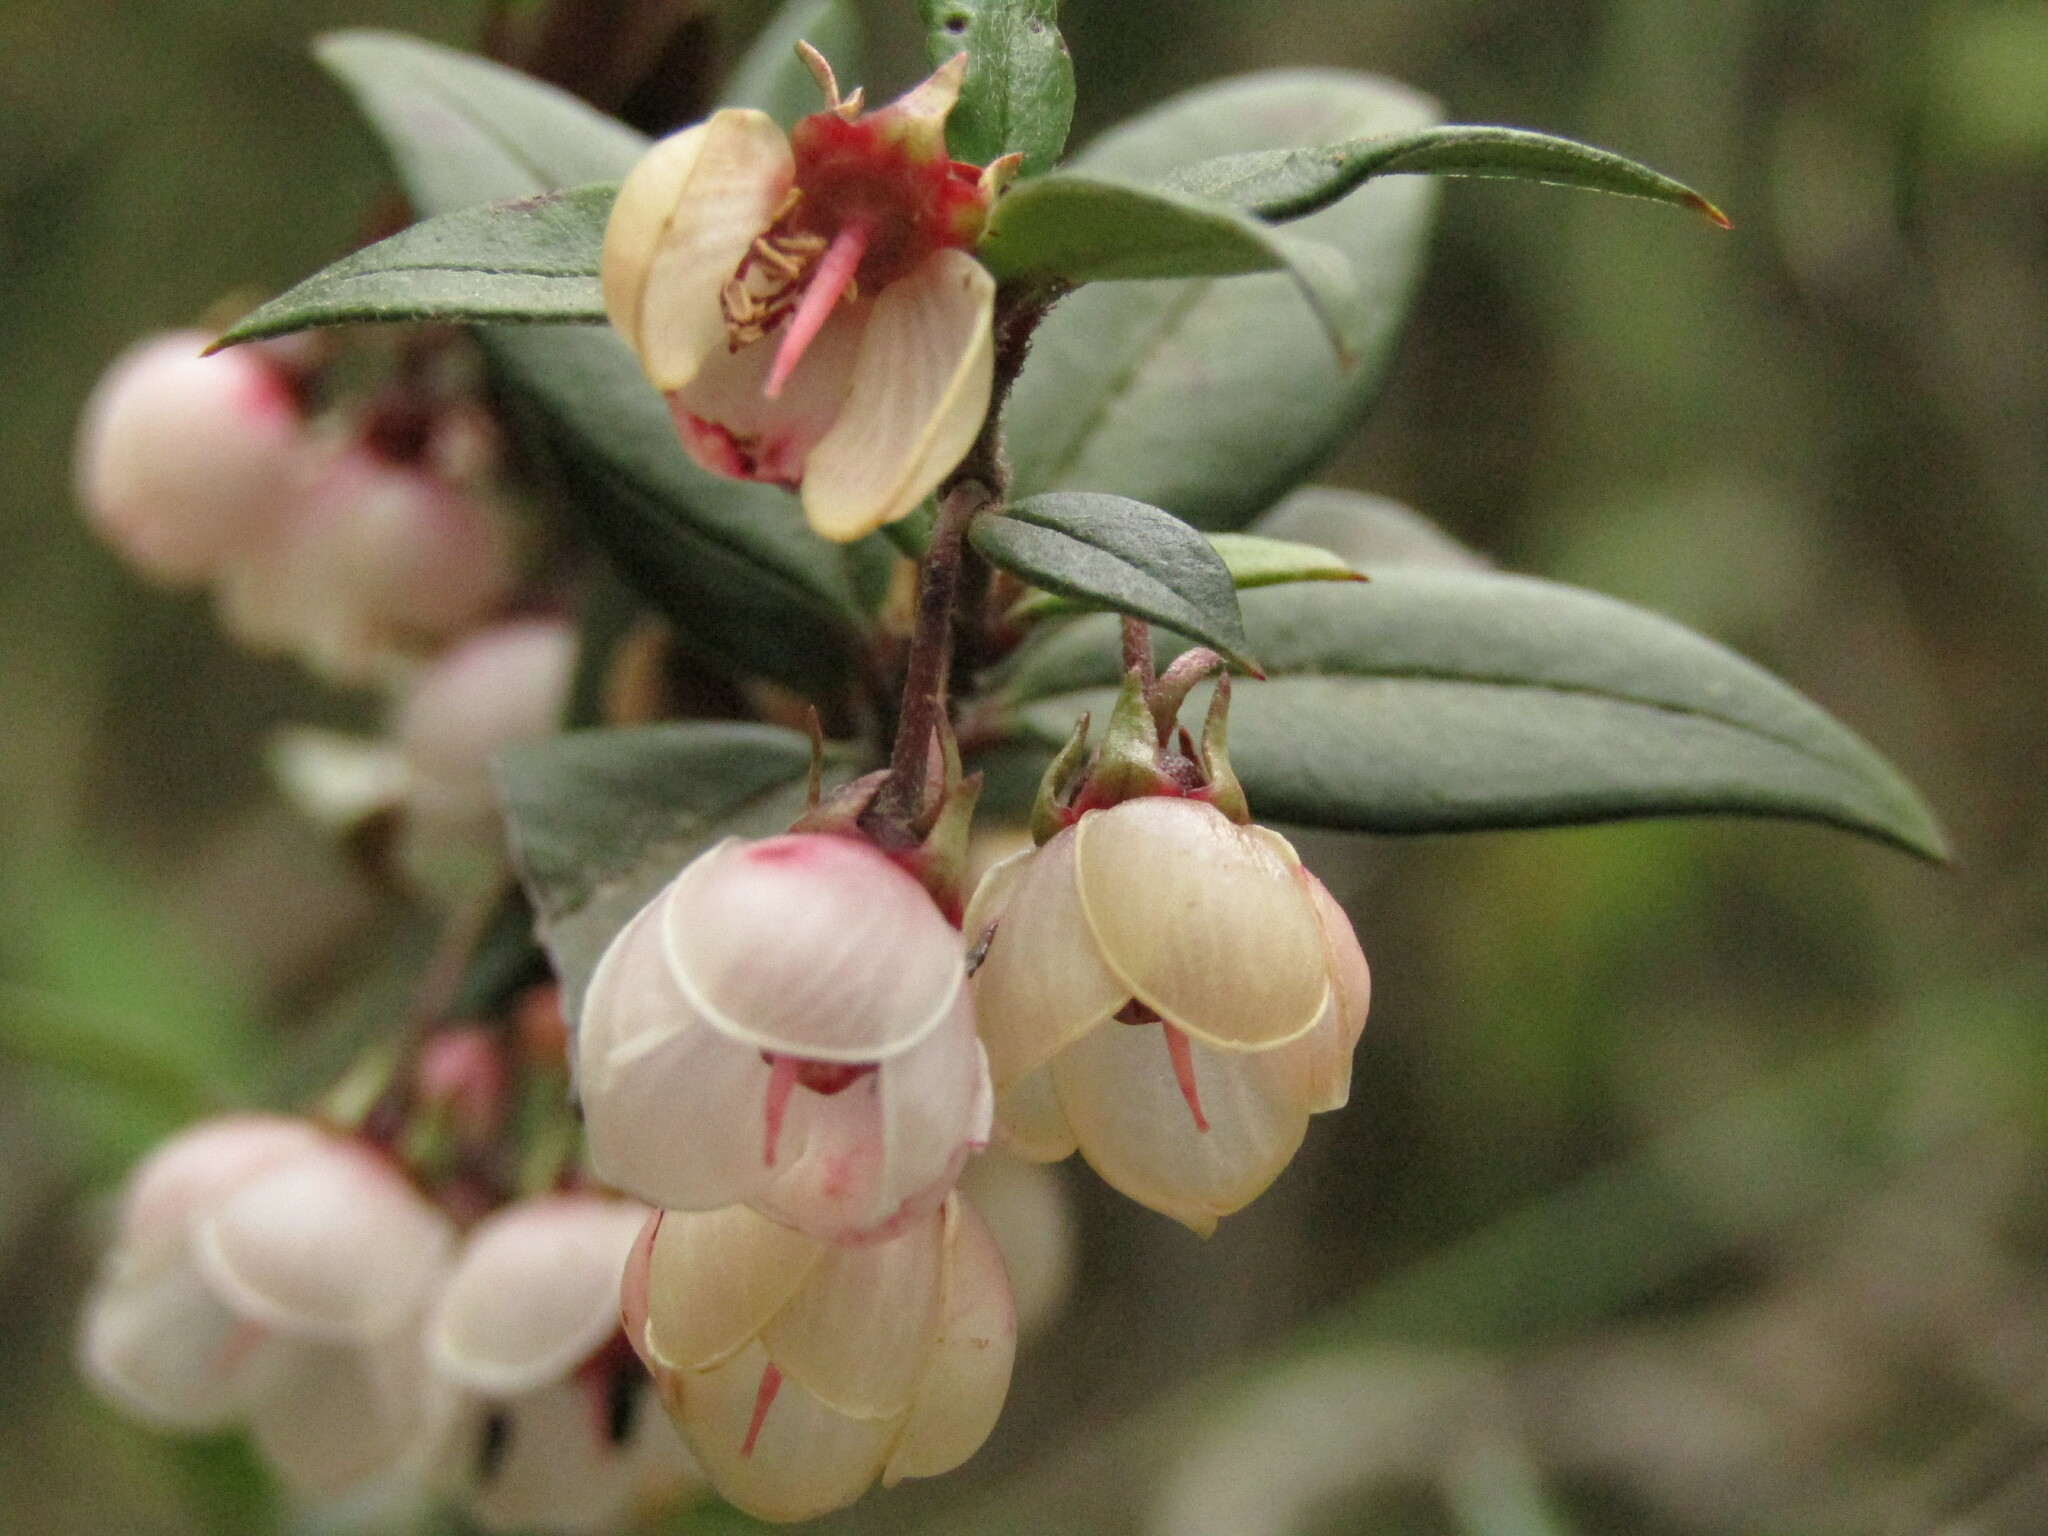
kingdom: Plantae
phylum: Tracheophyta
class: Magnoliopsida
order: Myrtales
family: Myrtaceae
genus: Ugni
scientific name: Ugni molinae
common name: Chilean-guava
